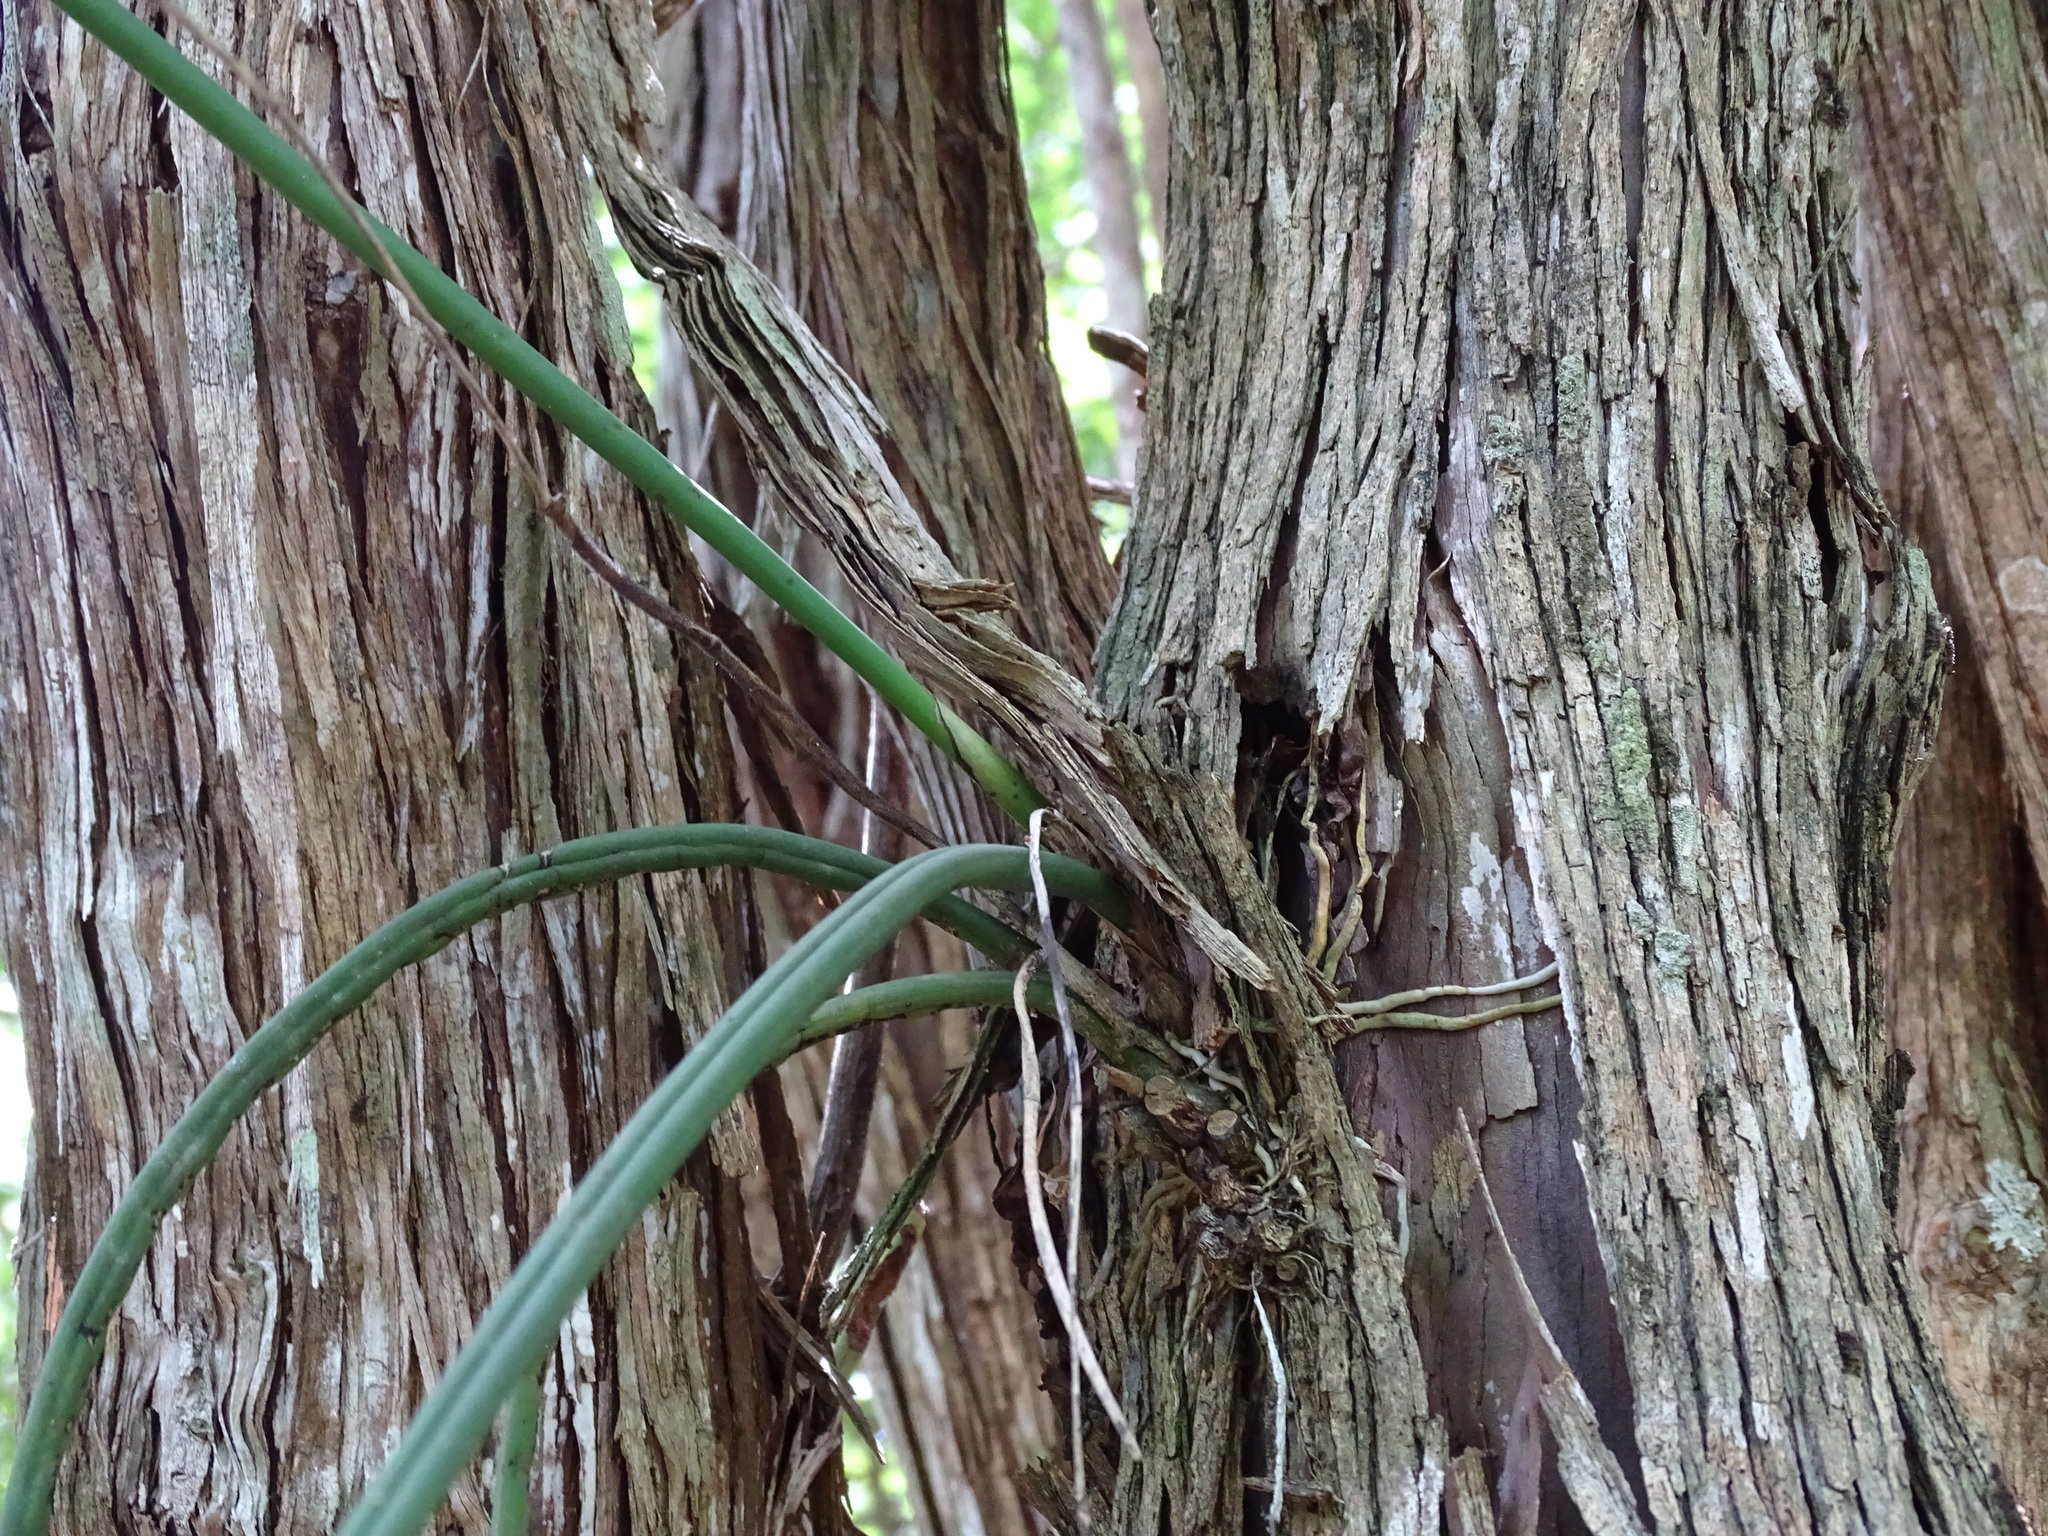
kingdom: Plantae
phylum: Tracheophyta
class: Liliopsida
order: Asparagales
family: Orchidaceae
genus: Trichocentrum
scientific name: Trichocentrum yucatanense
